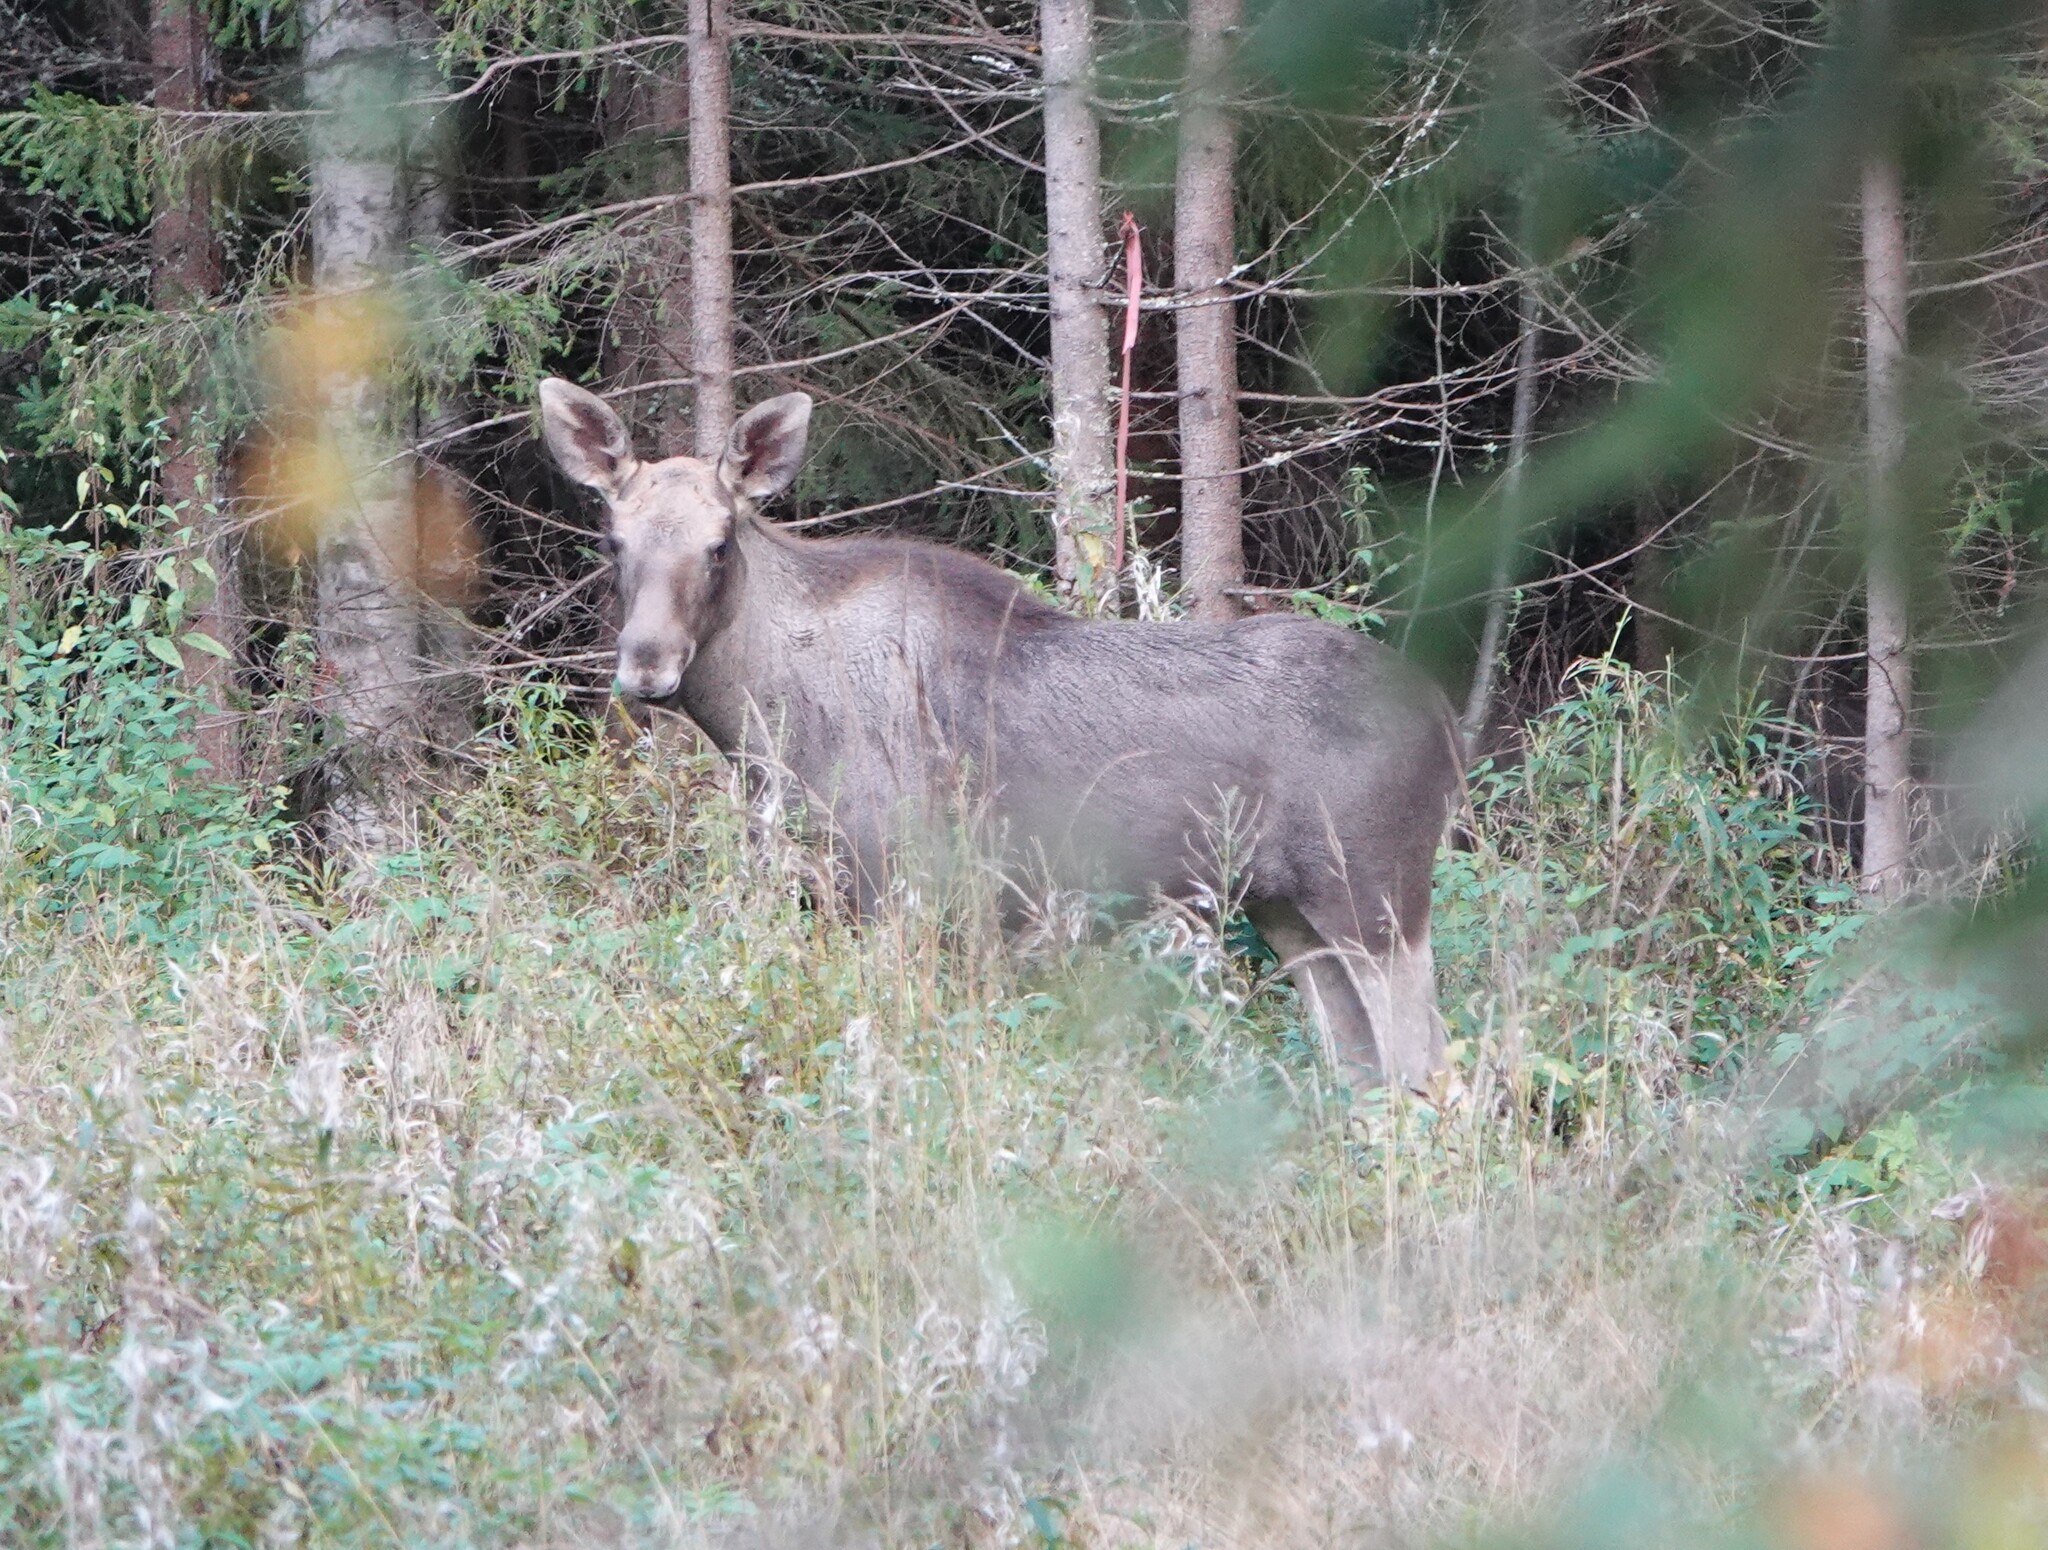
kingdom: Animalia
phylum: Chordata
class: Mammalia
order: Artiodactyla
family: Cervidae
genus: Alces
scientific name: Alces alces
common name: Moose
